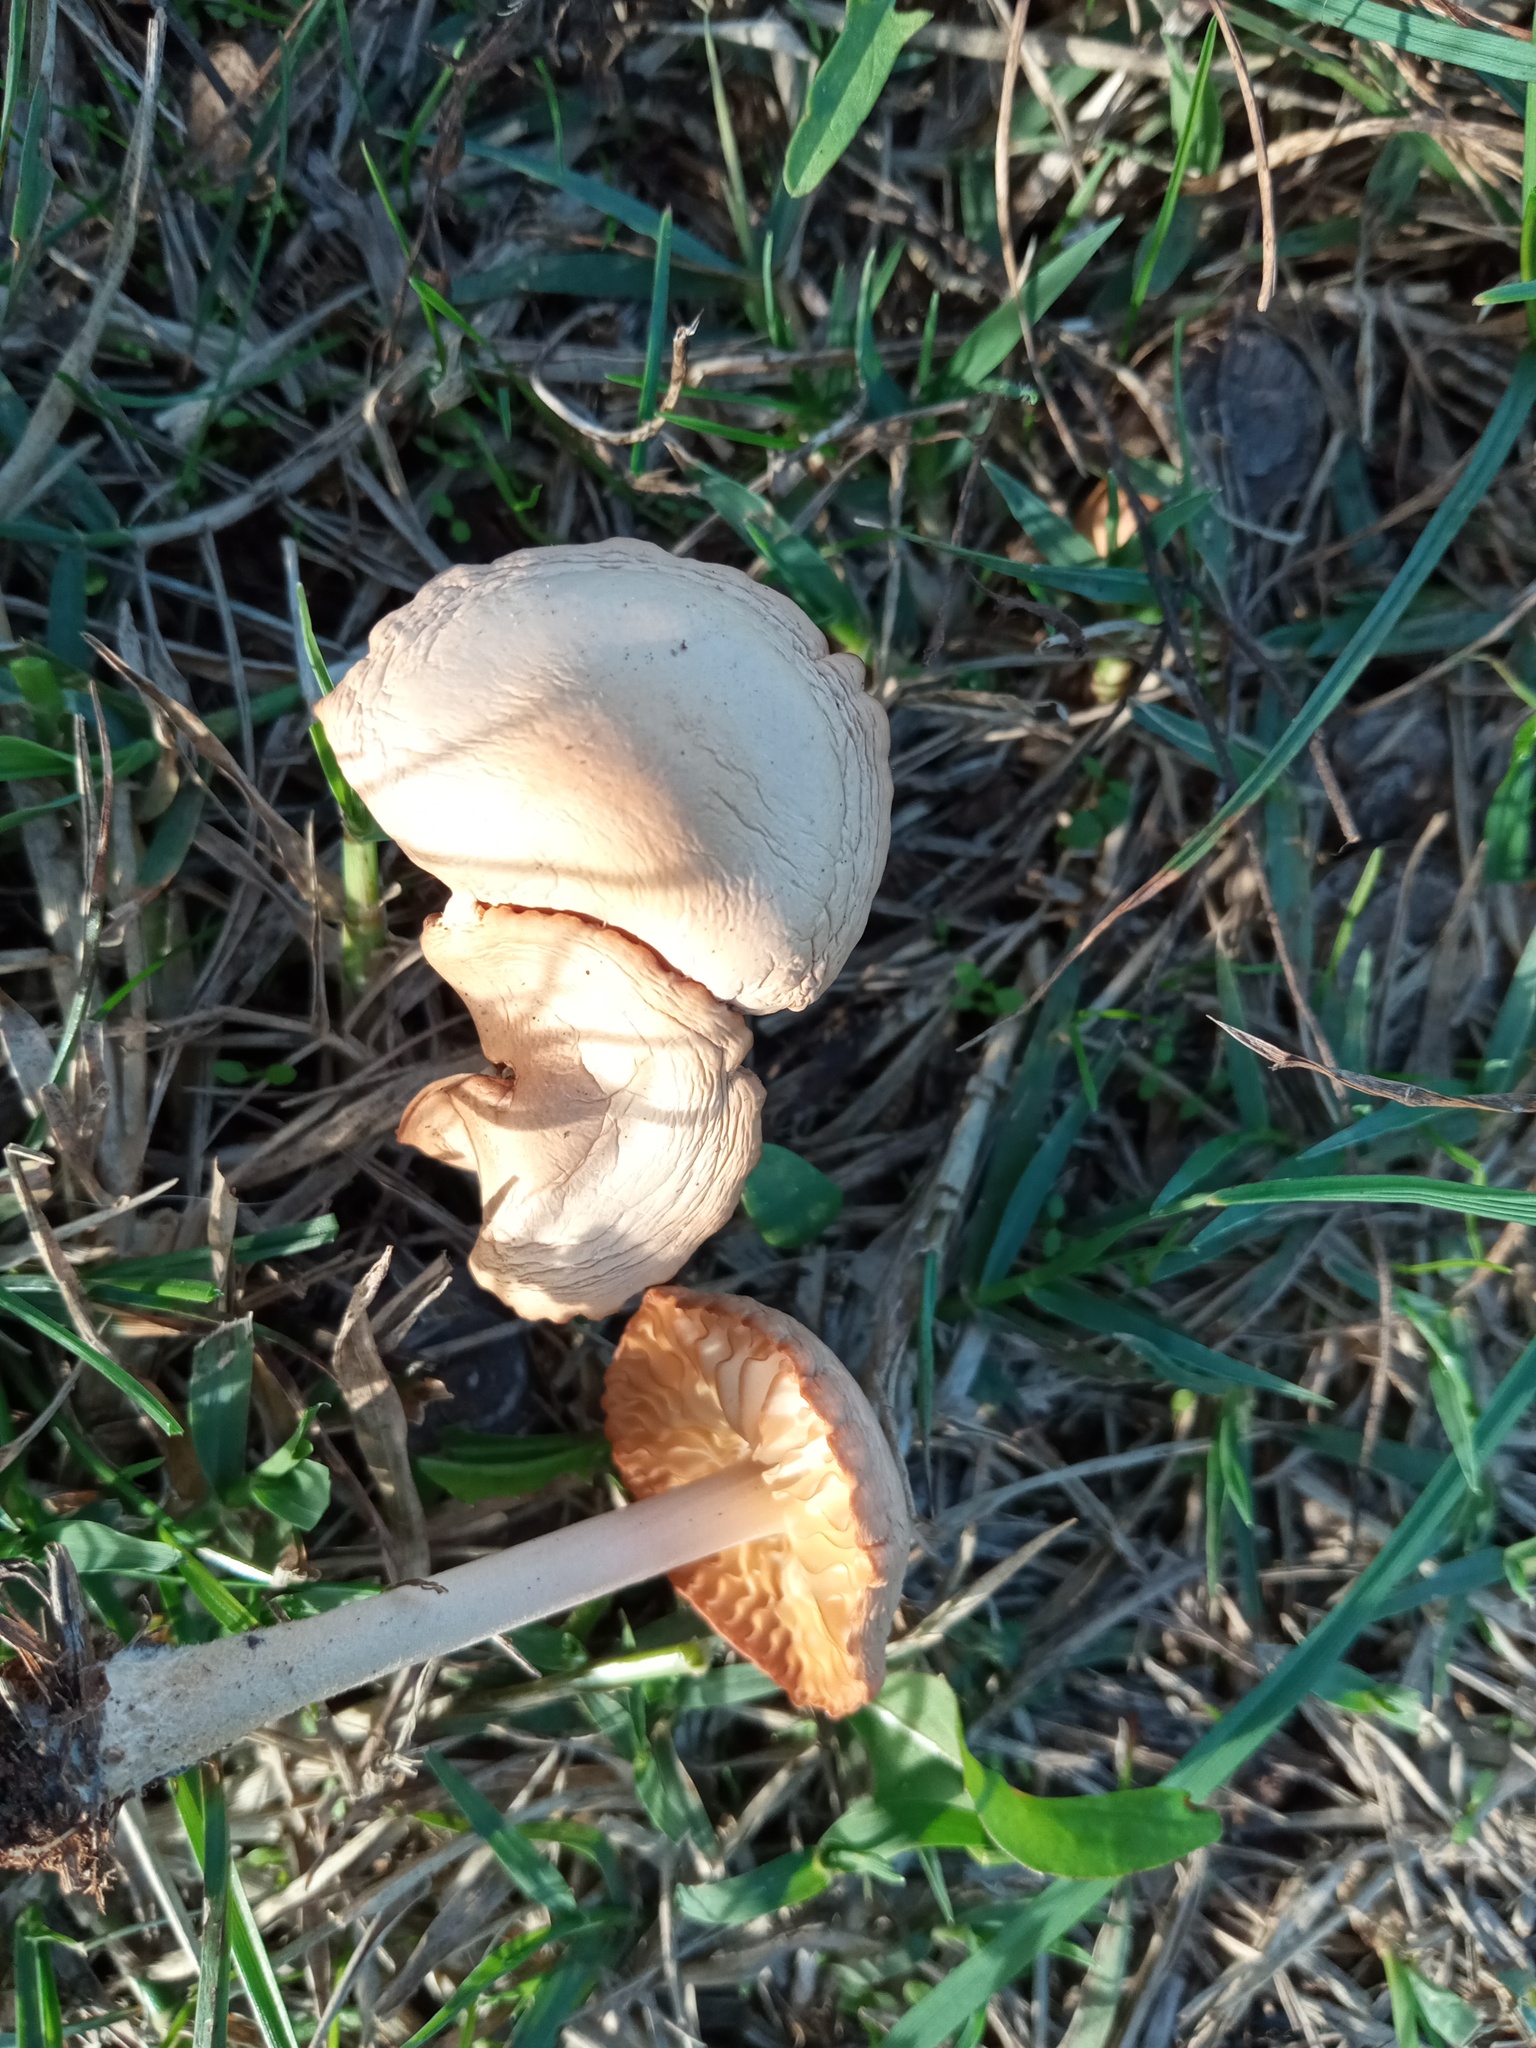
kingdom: Fungi
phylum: Basidiomycota
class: Agaricomycetes
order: Agaricales
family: Marasmiaceae
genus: Marasmius
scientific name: Marasmius oreades
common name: Fairy ring champignon
